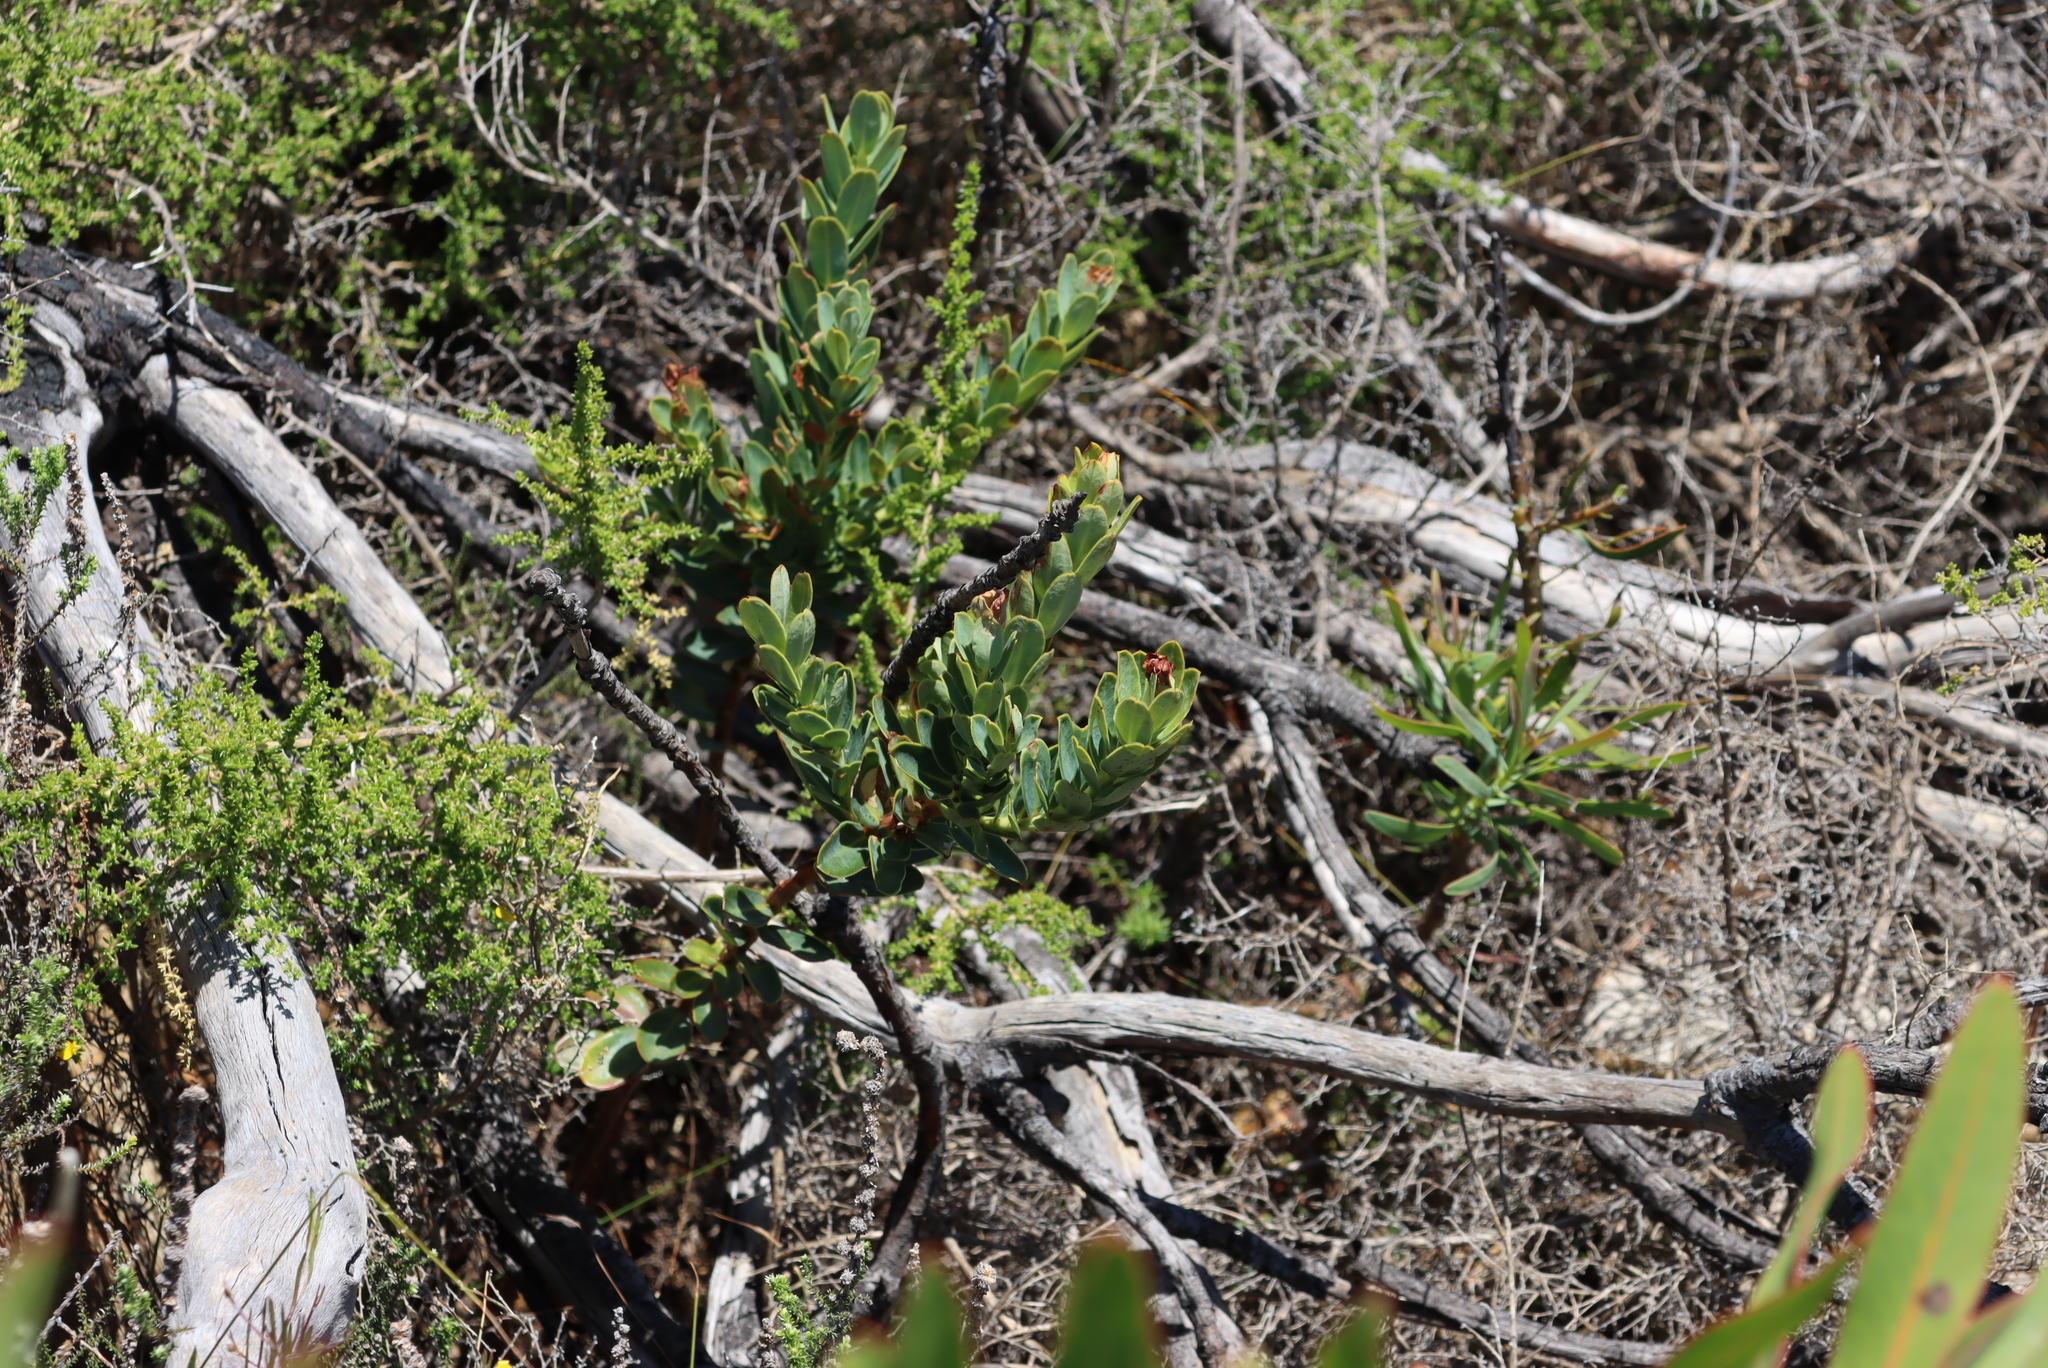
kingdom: Plantae
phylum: Tracheophyta
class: Magnoliopsida
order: Santalales
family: Santalaceae
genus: Osyris
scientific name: Osyris compressa
